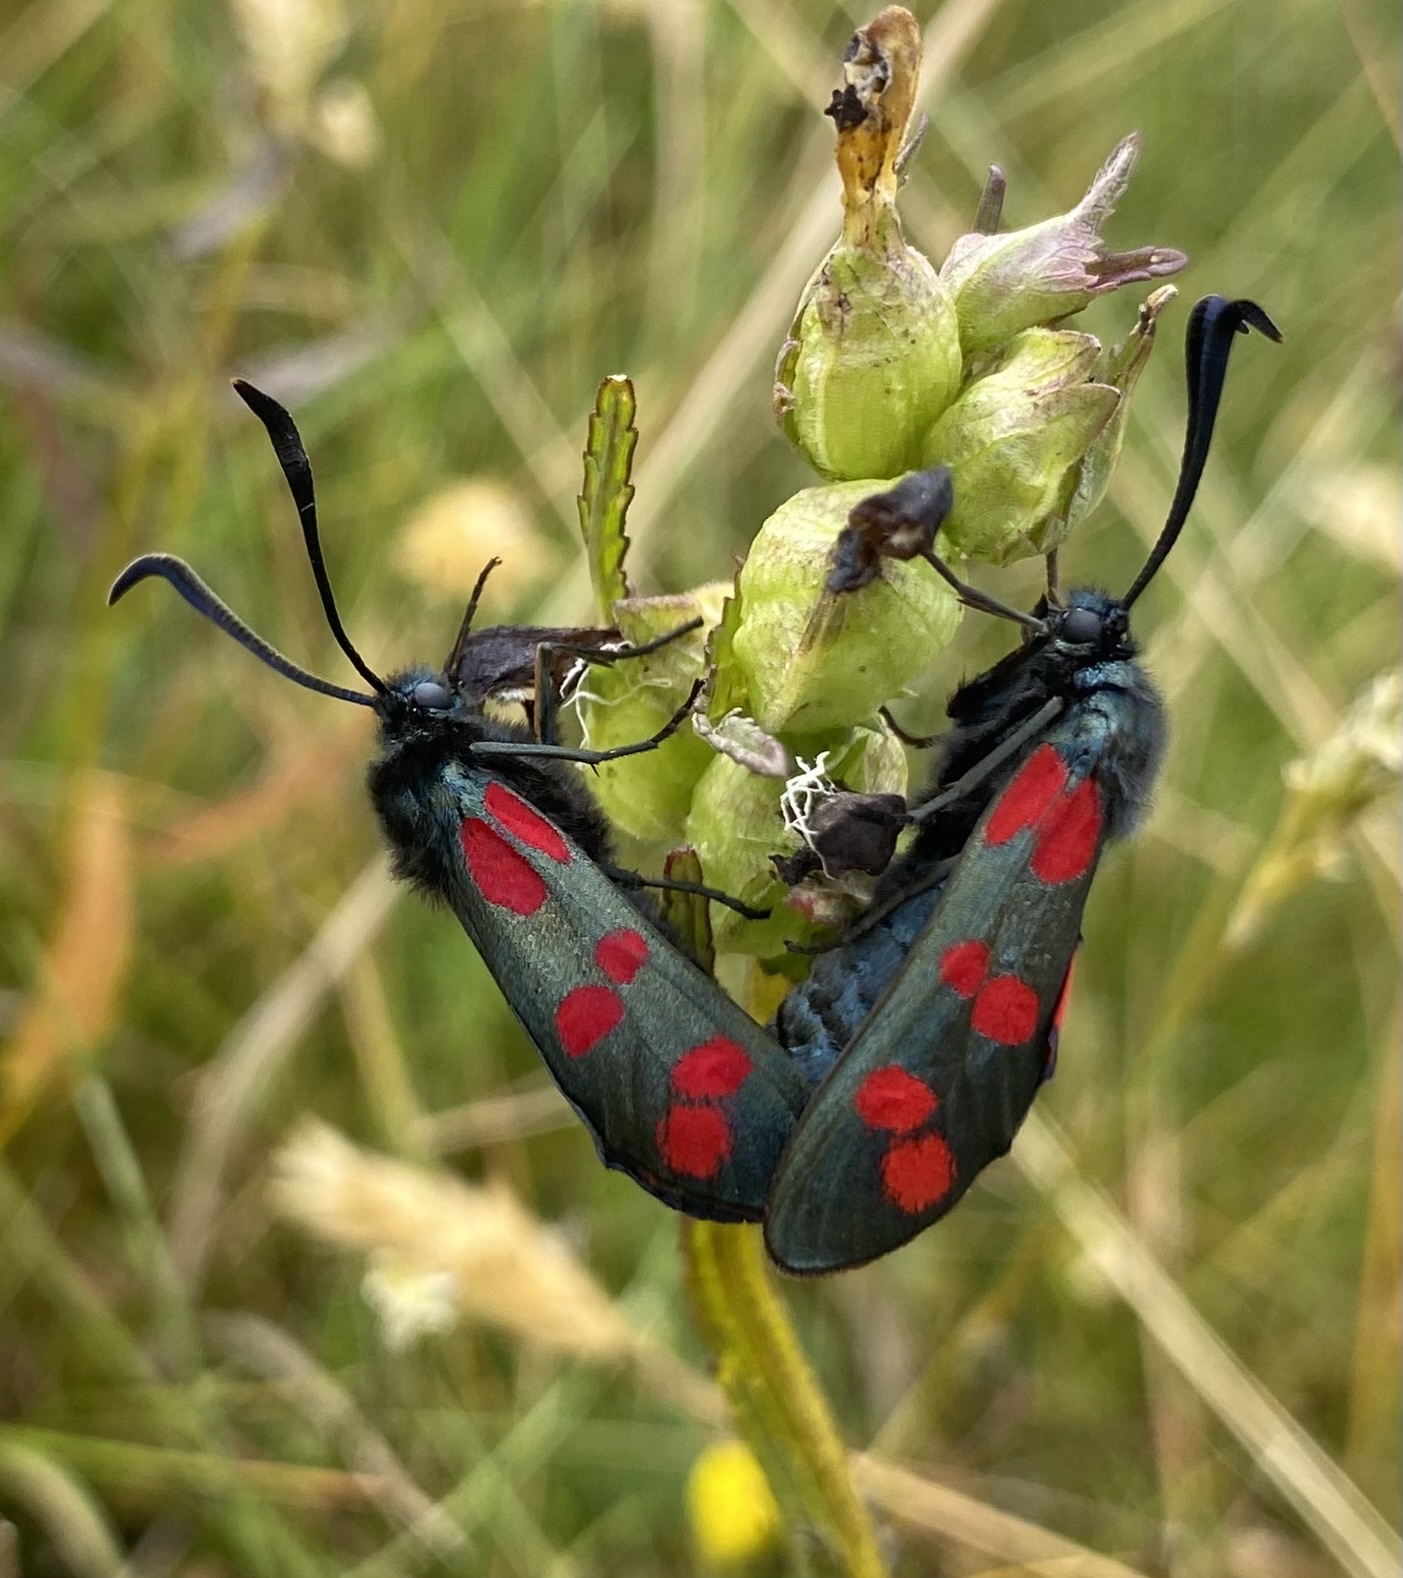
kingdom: Animalia
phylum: Arthropoda
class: Insecta
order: Lepidoptera
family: Zygaenidae
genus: Zygaena
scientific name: Zygaena filipendulae
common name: Six-spot burnet
